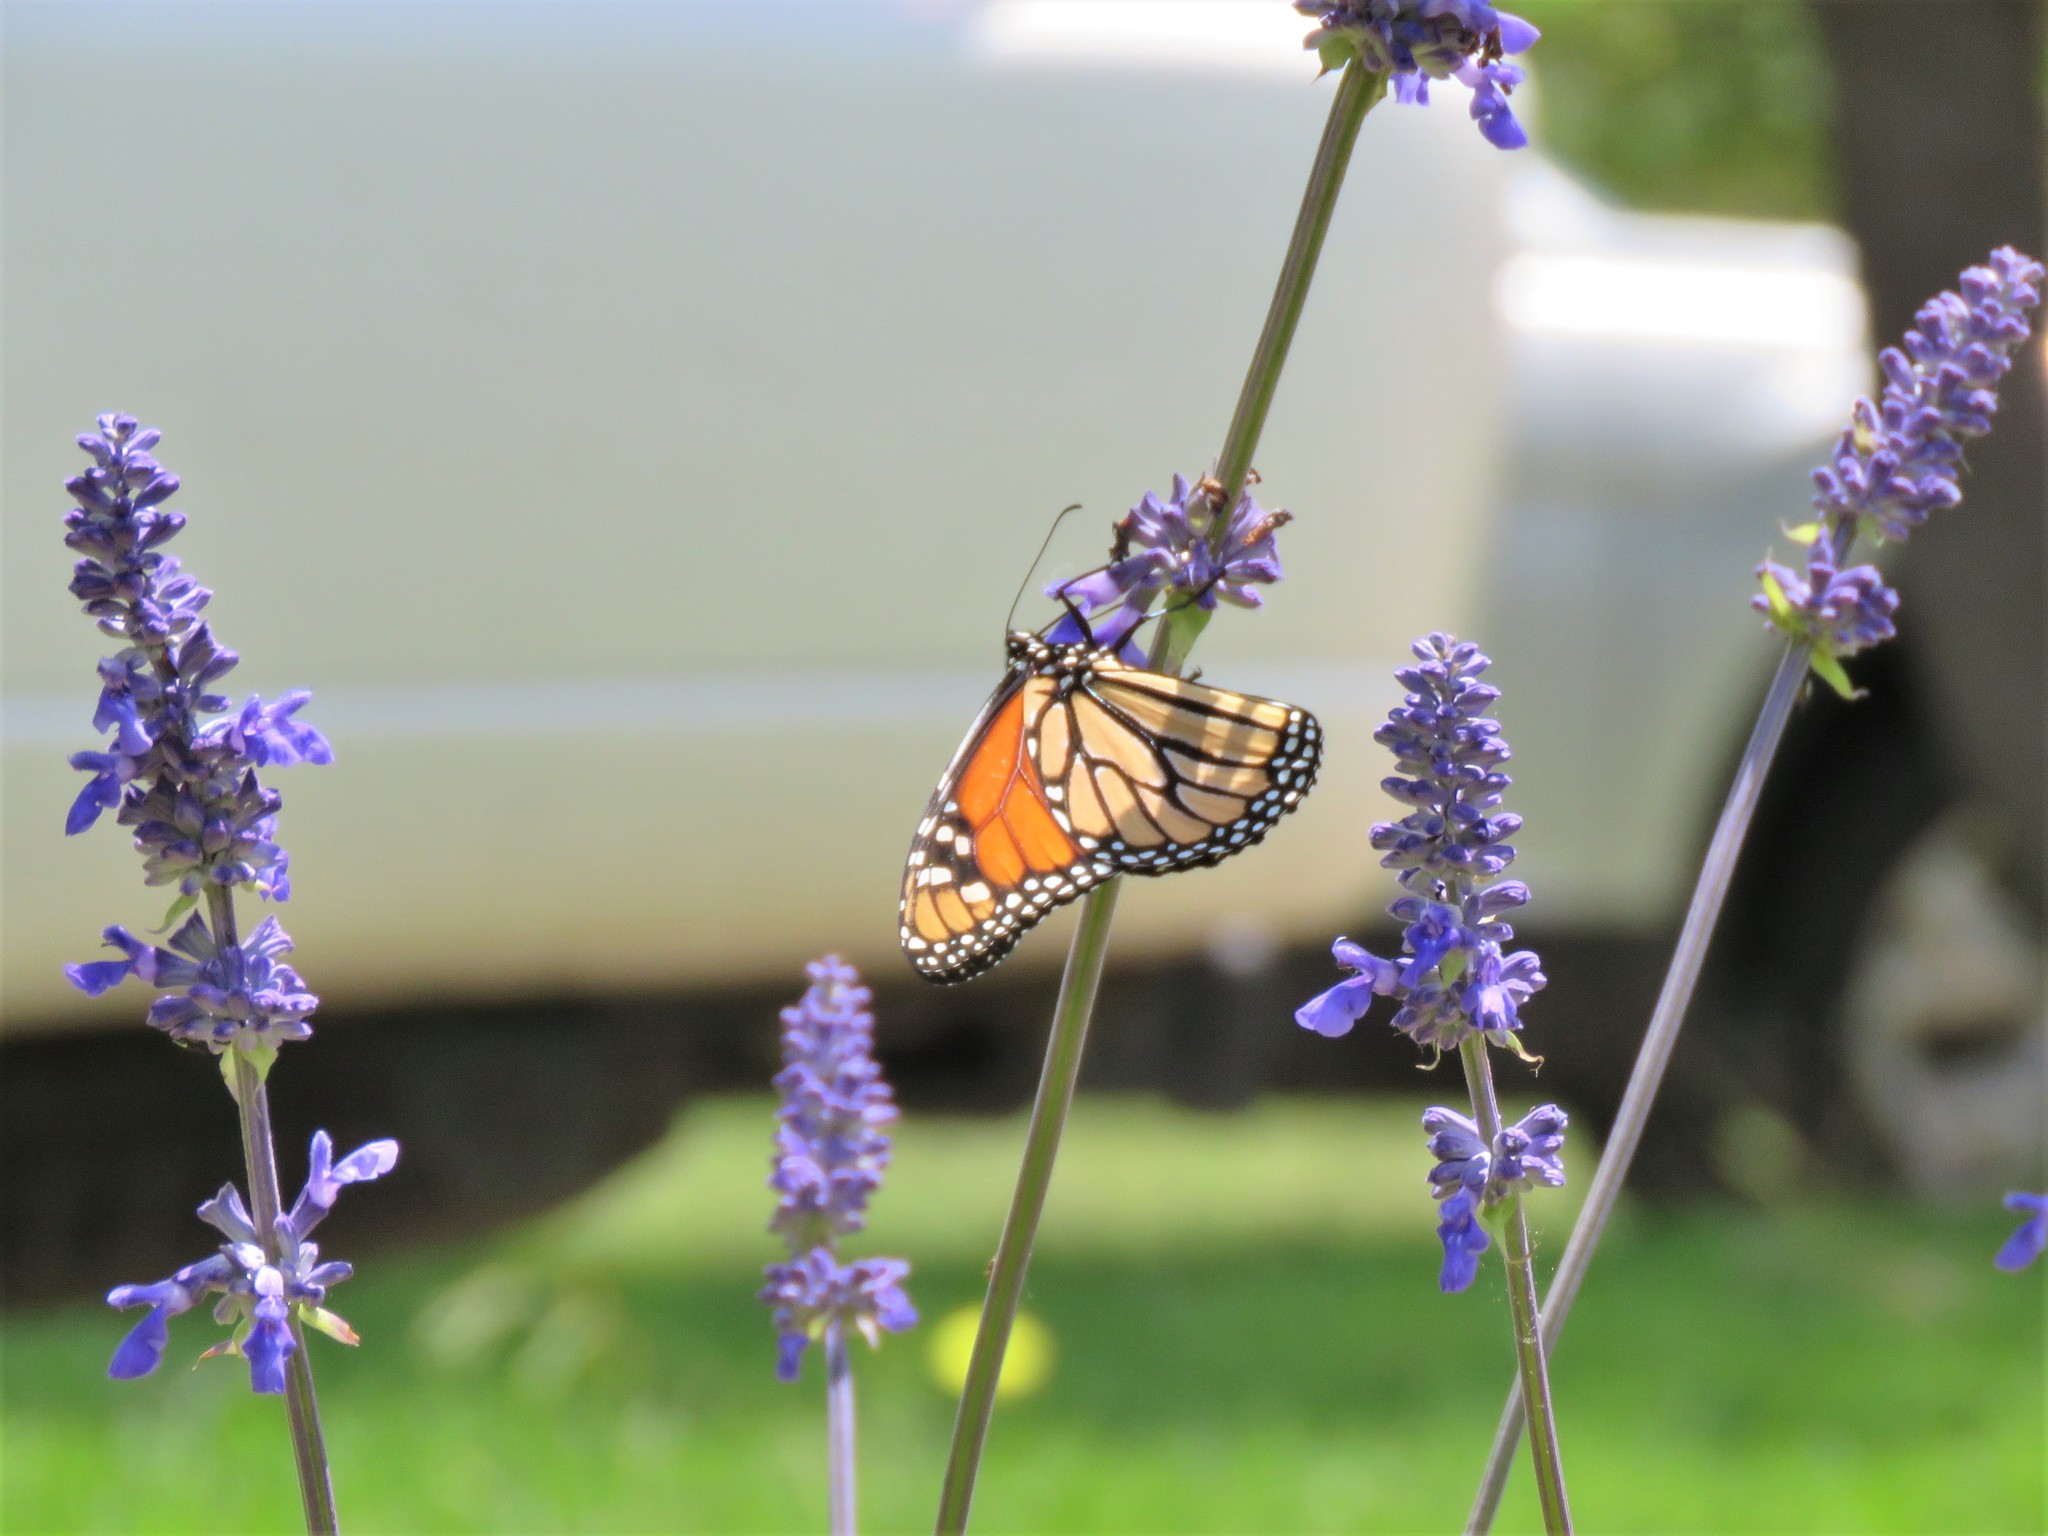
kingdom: Animalia
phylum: Arthropoda
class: Insecta
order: Lepidoptera
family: Nymphalidae
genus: Danaus
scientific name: Danaus plexippus
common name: Monarch
